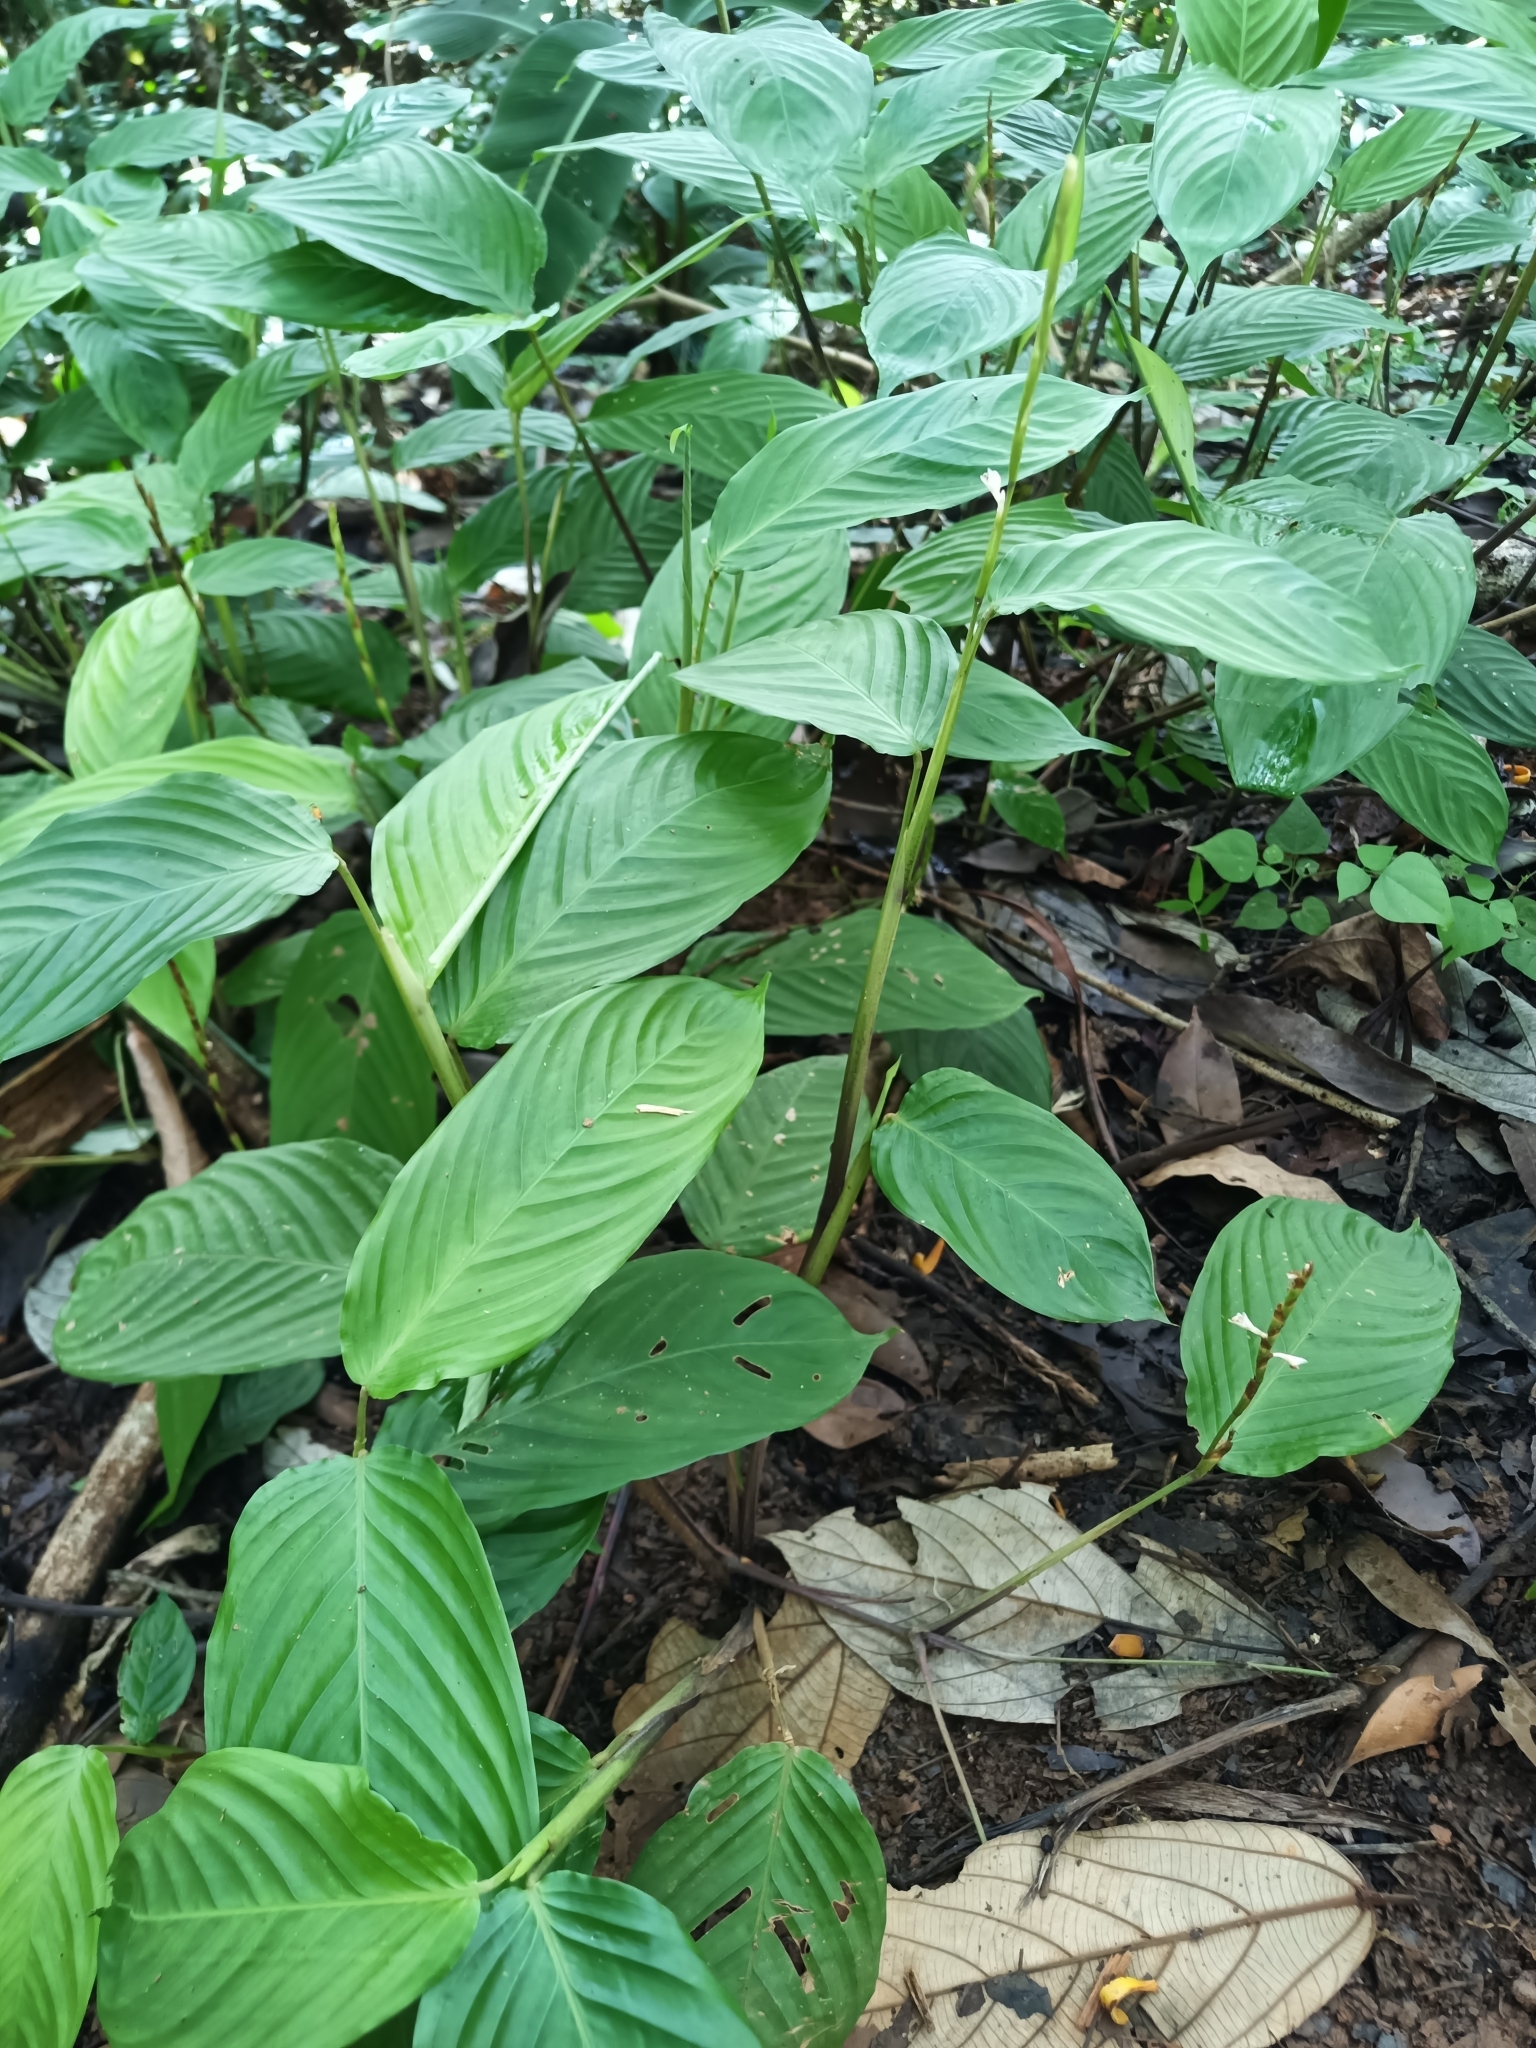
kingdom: Plantae
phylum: Tracheophyta
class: Liliopsida
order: Zingiberales
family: Marantaceae
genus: Maranta
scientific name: Maranta friedrichsthaliana
